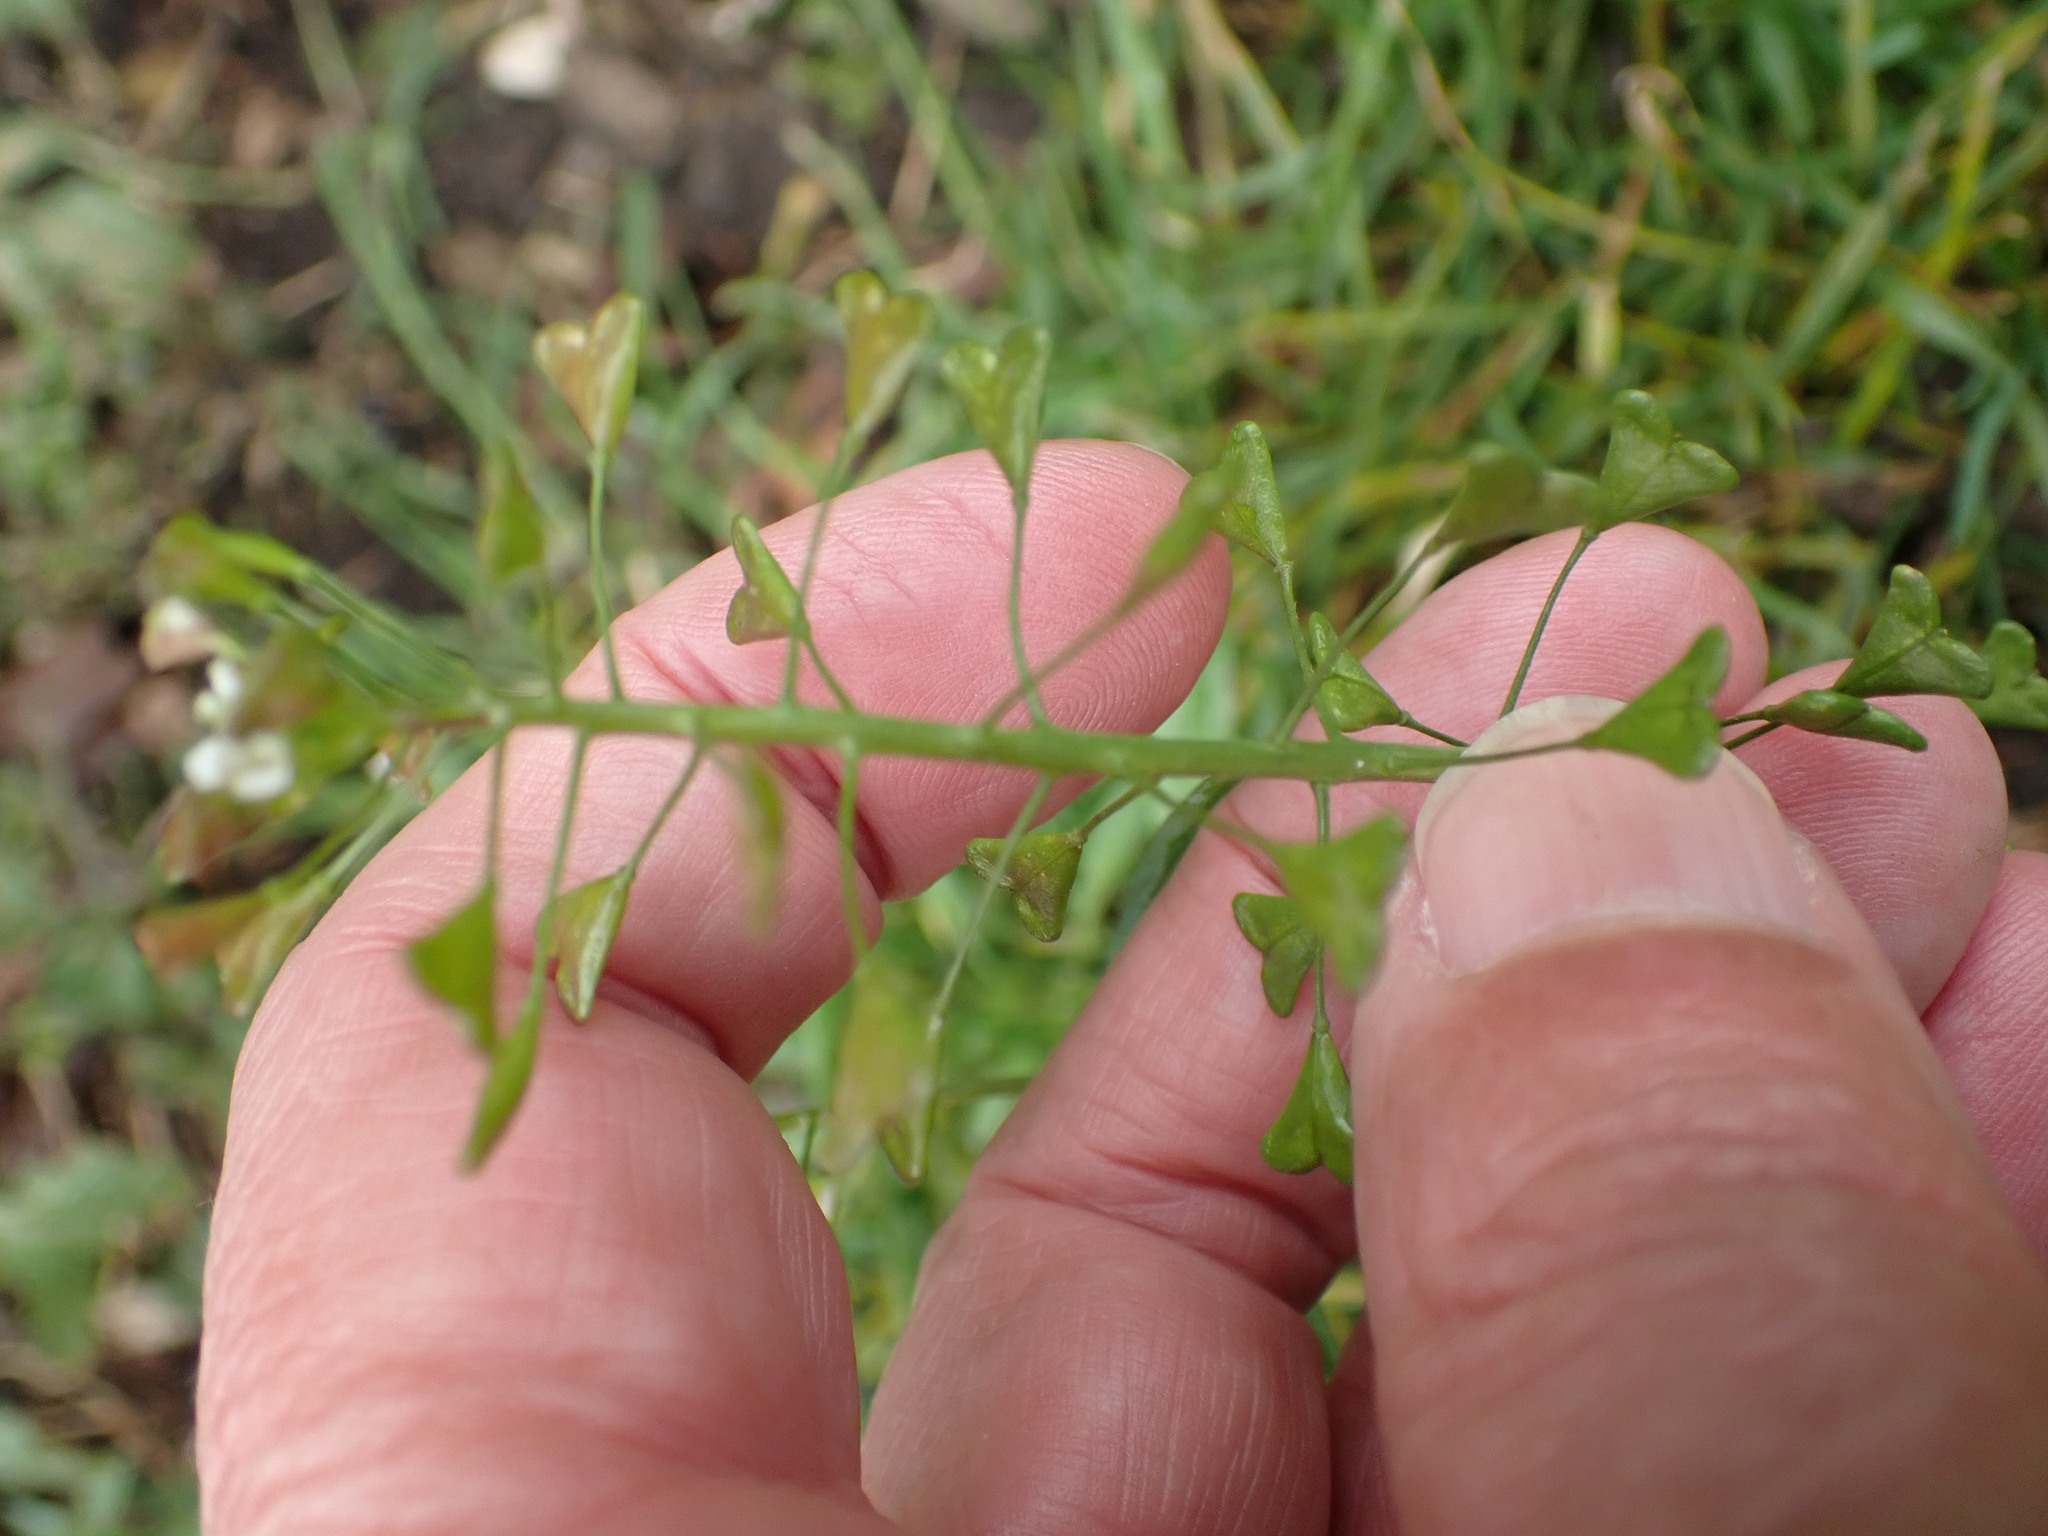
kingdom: Plantae
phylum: Tracheophyta
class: Magnoliopsida
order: Brassicales
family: Brassicaceae
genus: Capsella
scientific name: Capsella bursa-pastoris
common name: Shepherd's purse
